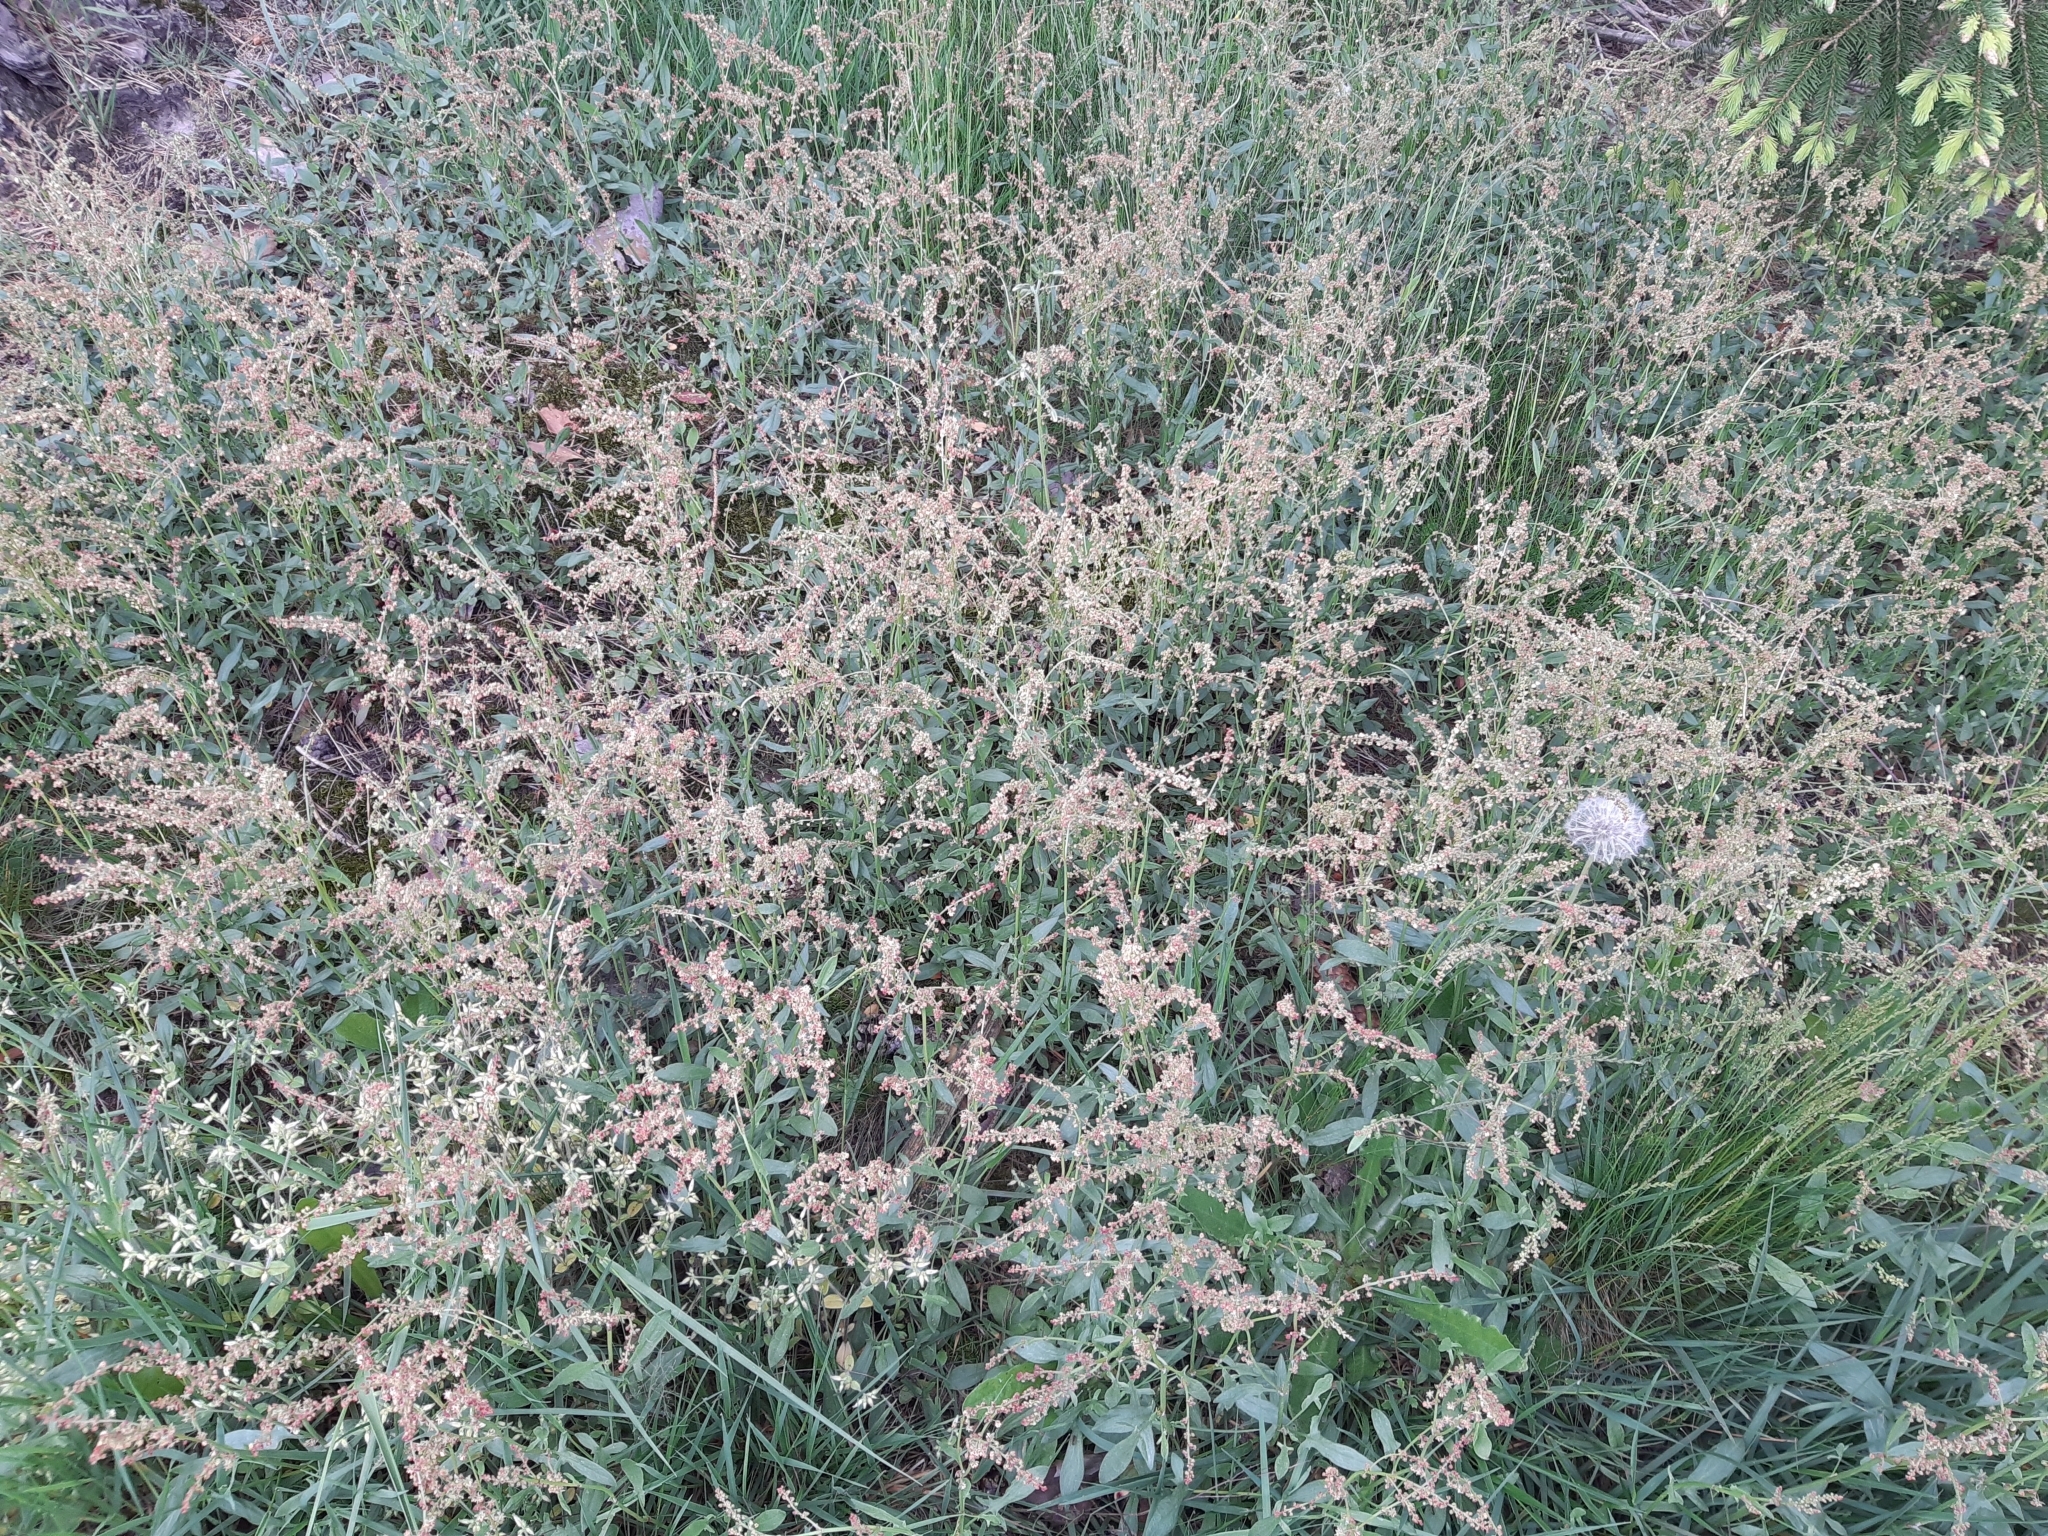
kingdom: Plantae
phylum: Tracheophyta
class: Magnoliopsida
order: Caryophyllales
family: Polygonaceae
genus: Rumex
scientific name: Rumex acetosella
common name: Common sheep sorrel
